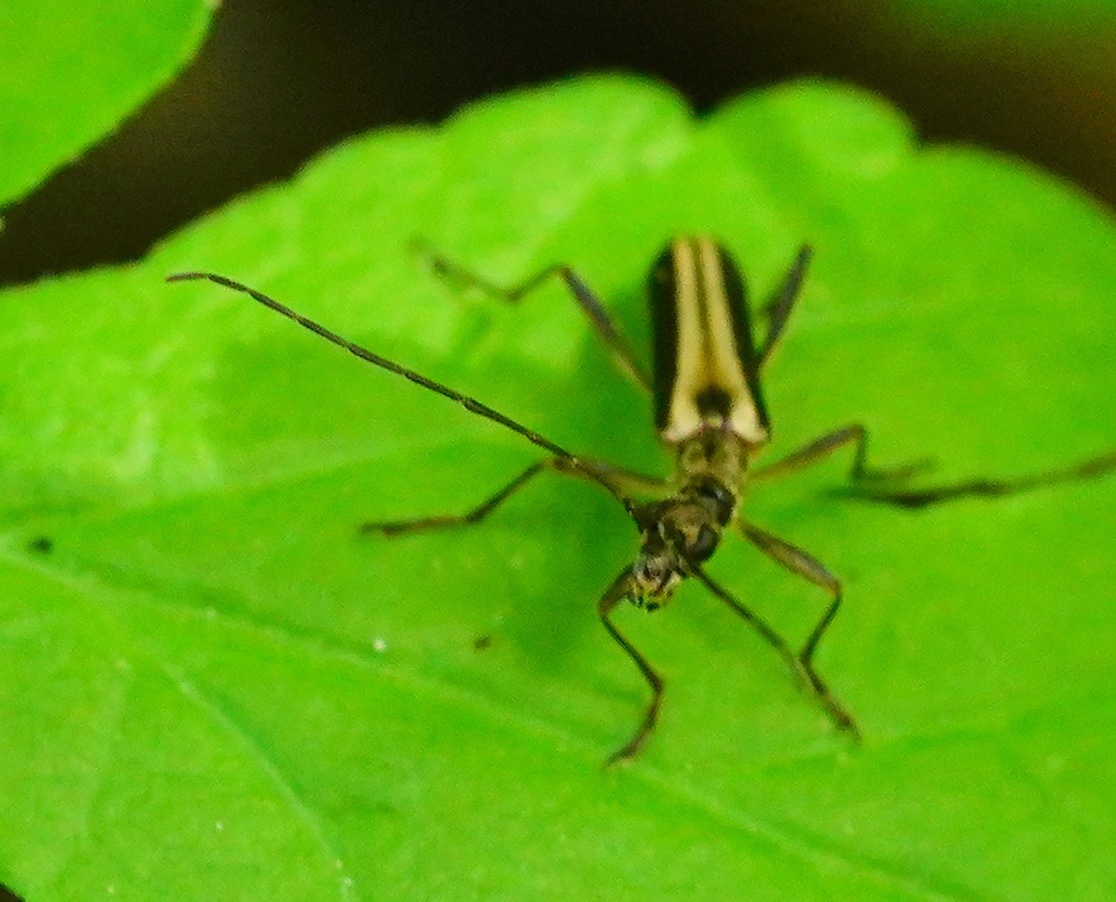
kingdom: Animalia
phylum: Arthropoda
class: Insecta
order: Coleoptera
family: Cerambycidae
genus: Leptalia
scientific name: Leptalia macilenta
